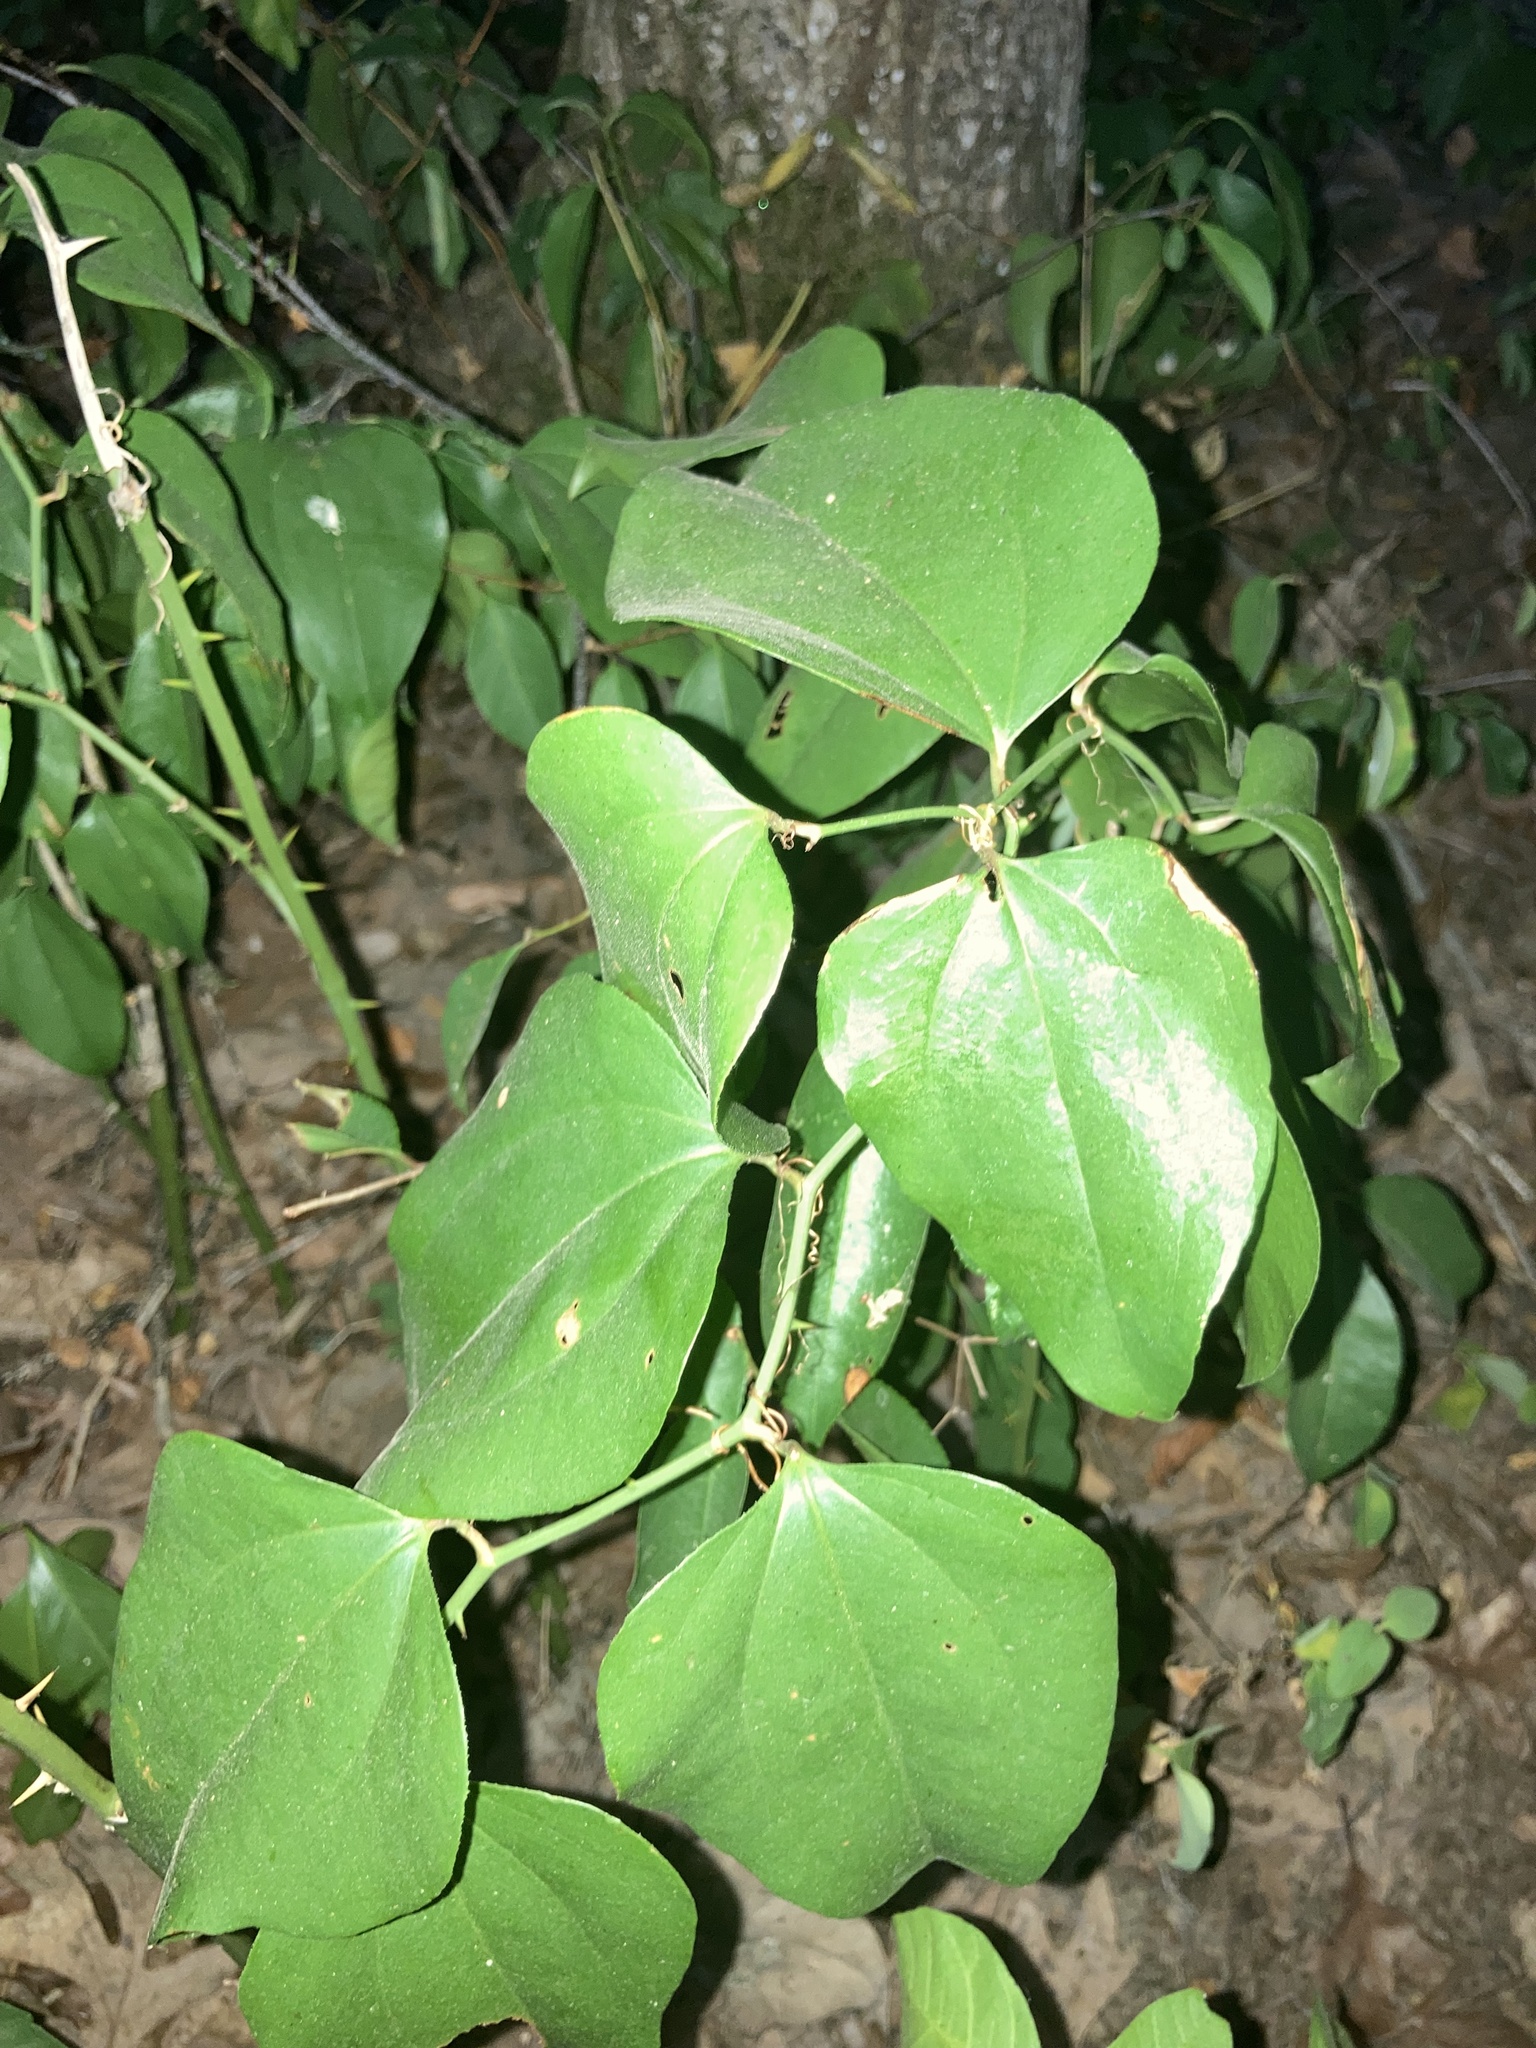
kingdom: Plantae
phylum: Tracheophyta
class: Liliopsida
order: Liliales
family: Smilacaceae
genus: Smilax
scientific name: Smilax rotundifolia
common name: Bullbriar
